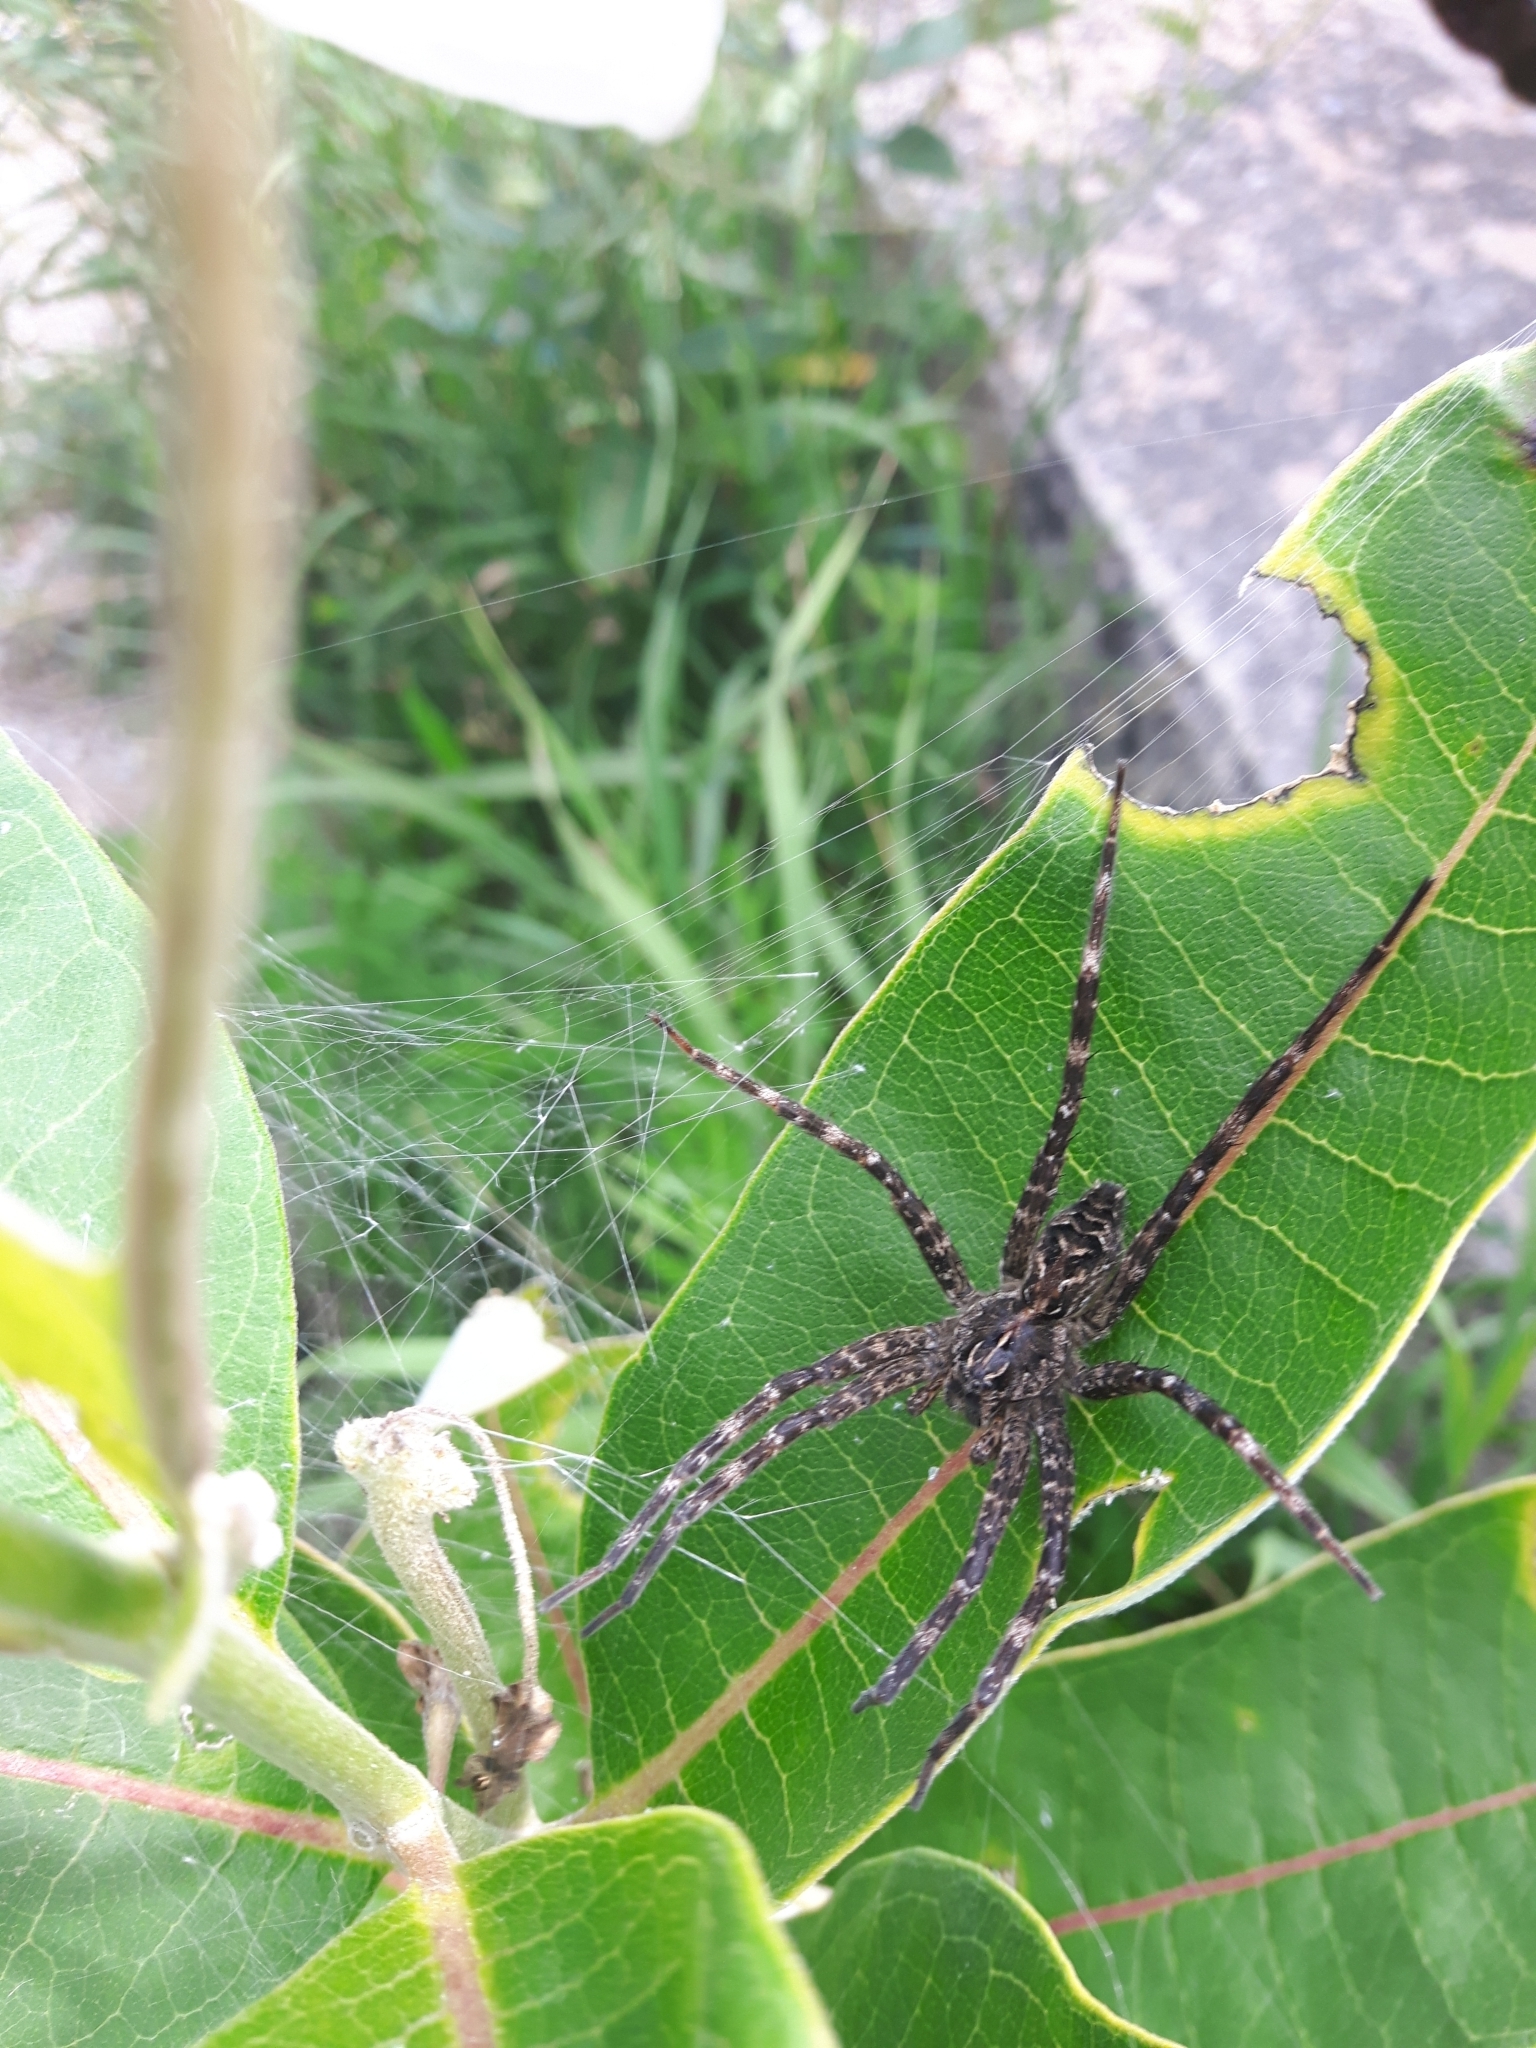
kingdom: Animalia
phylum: Arthropoda
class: Arachnida
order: Araneae
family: Pisauridae
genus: Dolomedes
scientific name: Dolomedes scriptus
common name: Striped fishing spider
